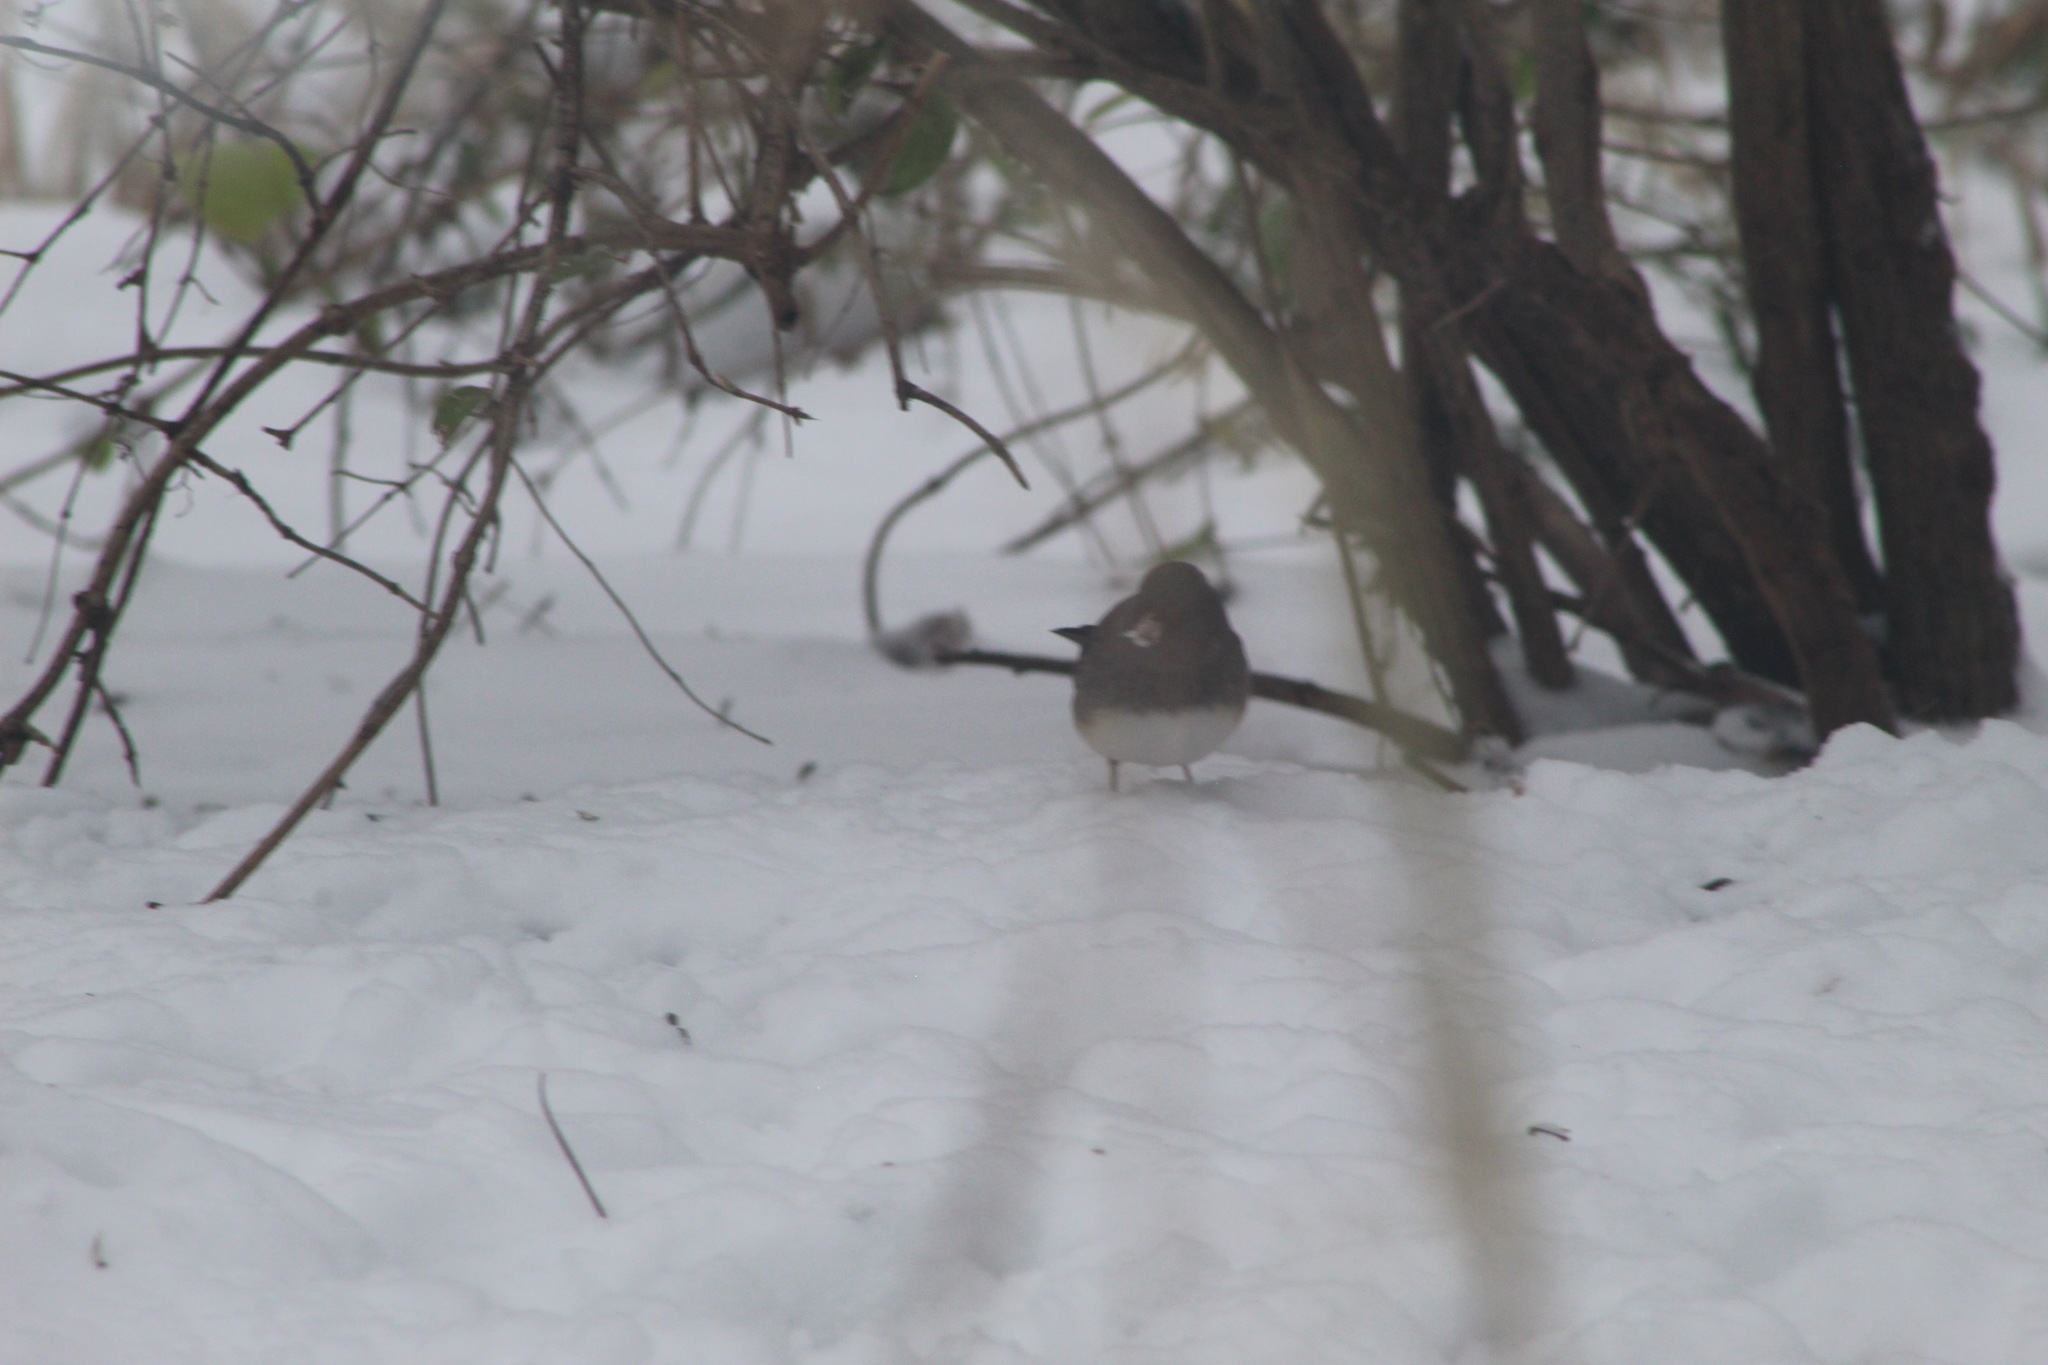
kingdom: Animalia
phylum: Chordata
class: Aves
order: Passeriformes
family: Passerellidae
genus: Junco
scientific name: Junco hyemalis
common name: Dark-eyed junco
